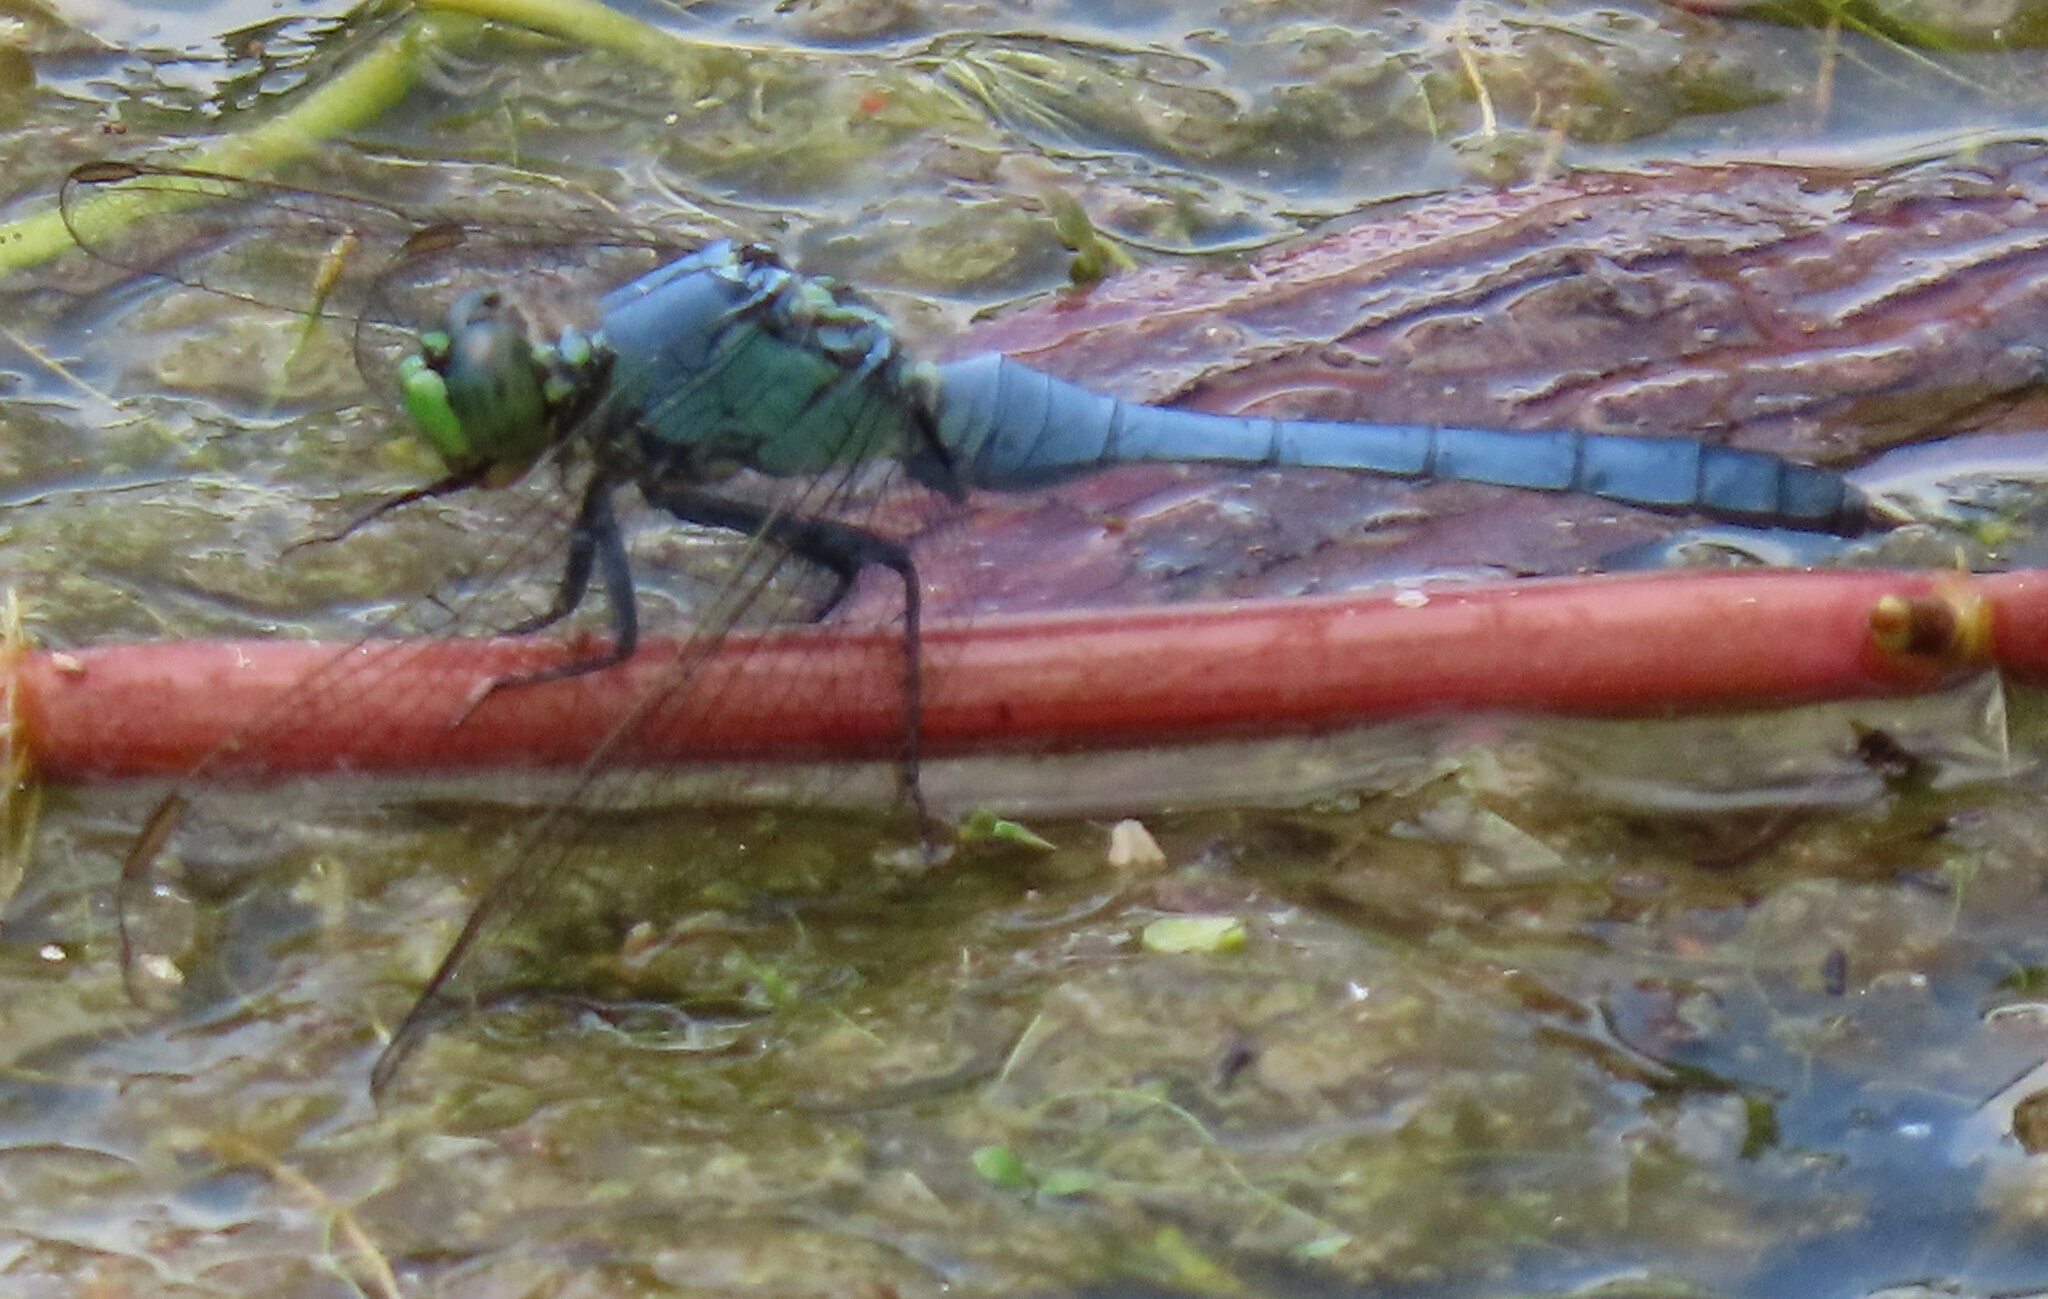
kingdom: Animalia
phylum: Arthropoda
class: Insecta
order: Odonata
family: Libellulidae
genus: Erythemis
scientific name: Erythemis simplicicollis
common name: Eastern pondhawk
